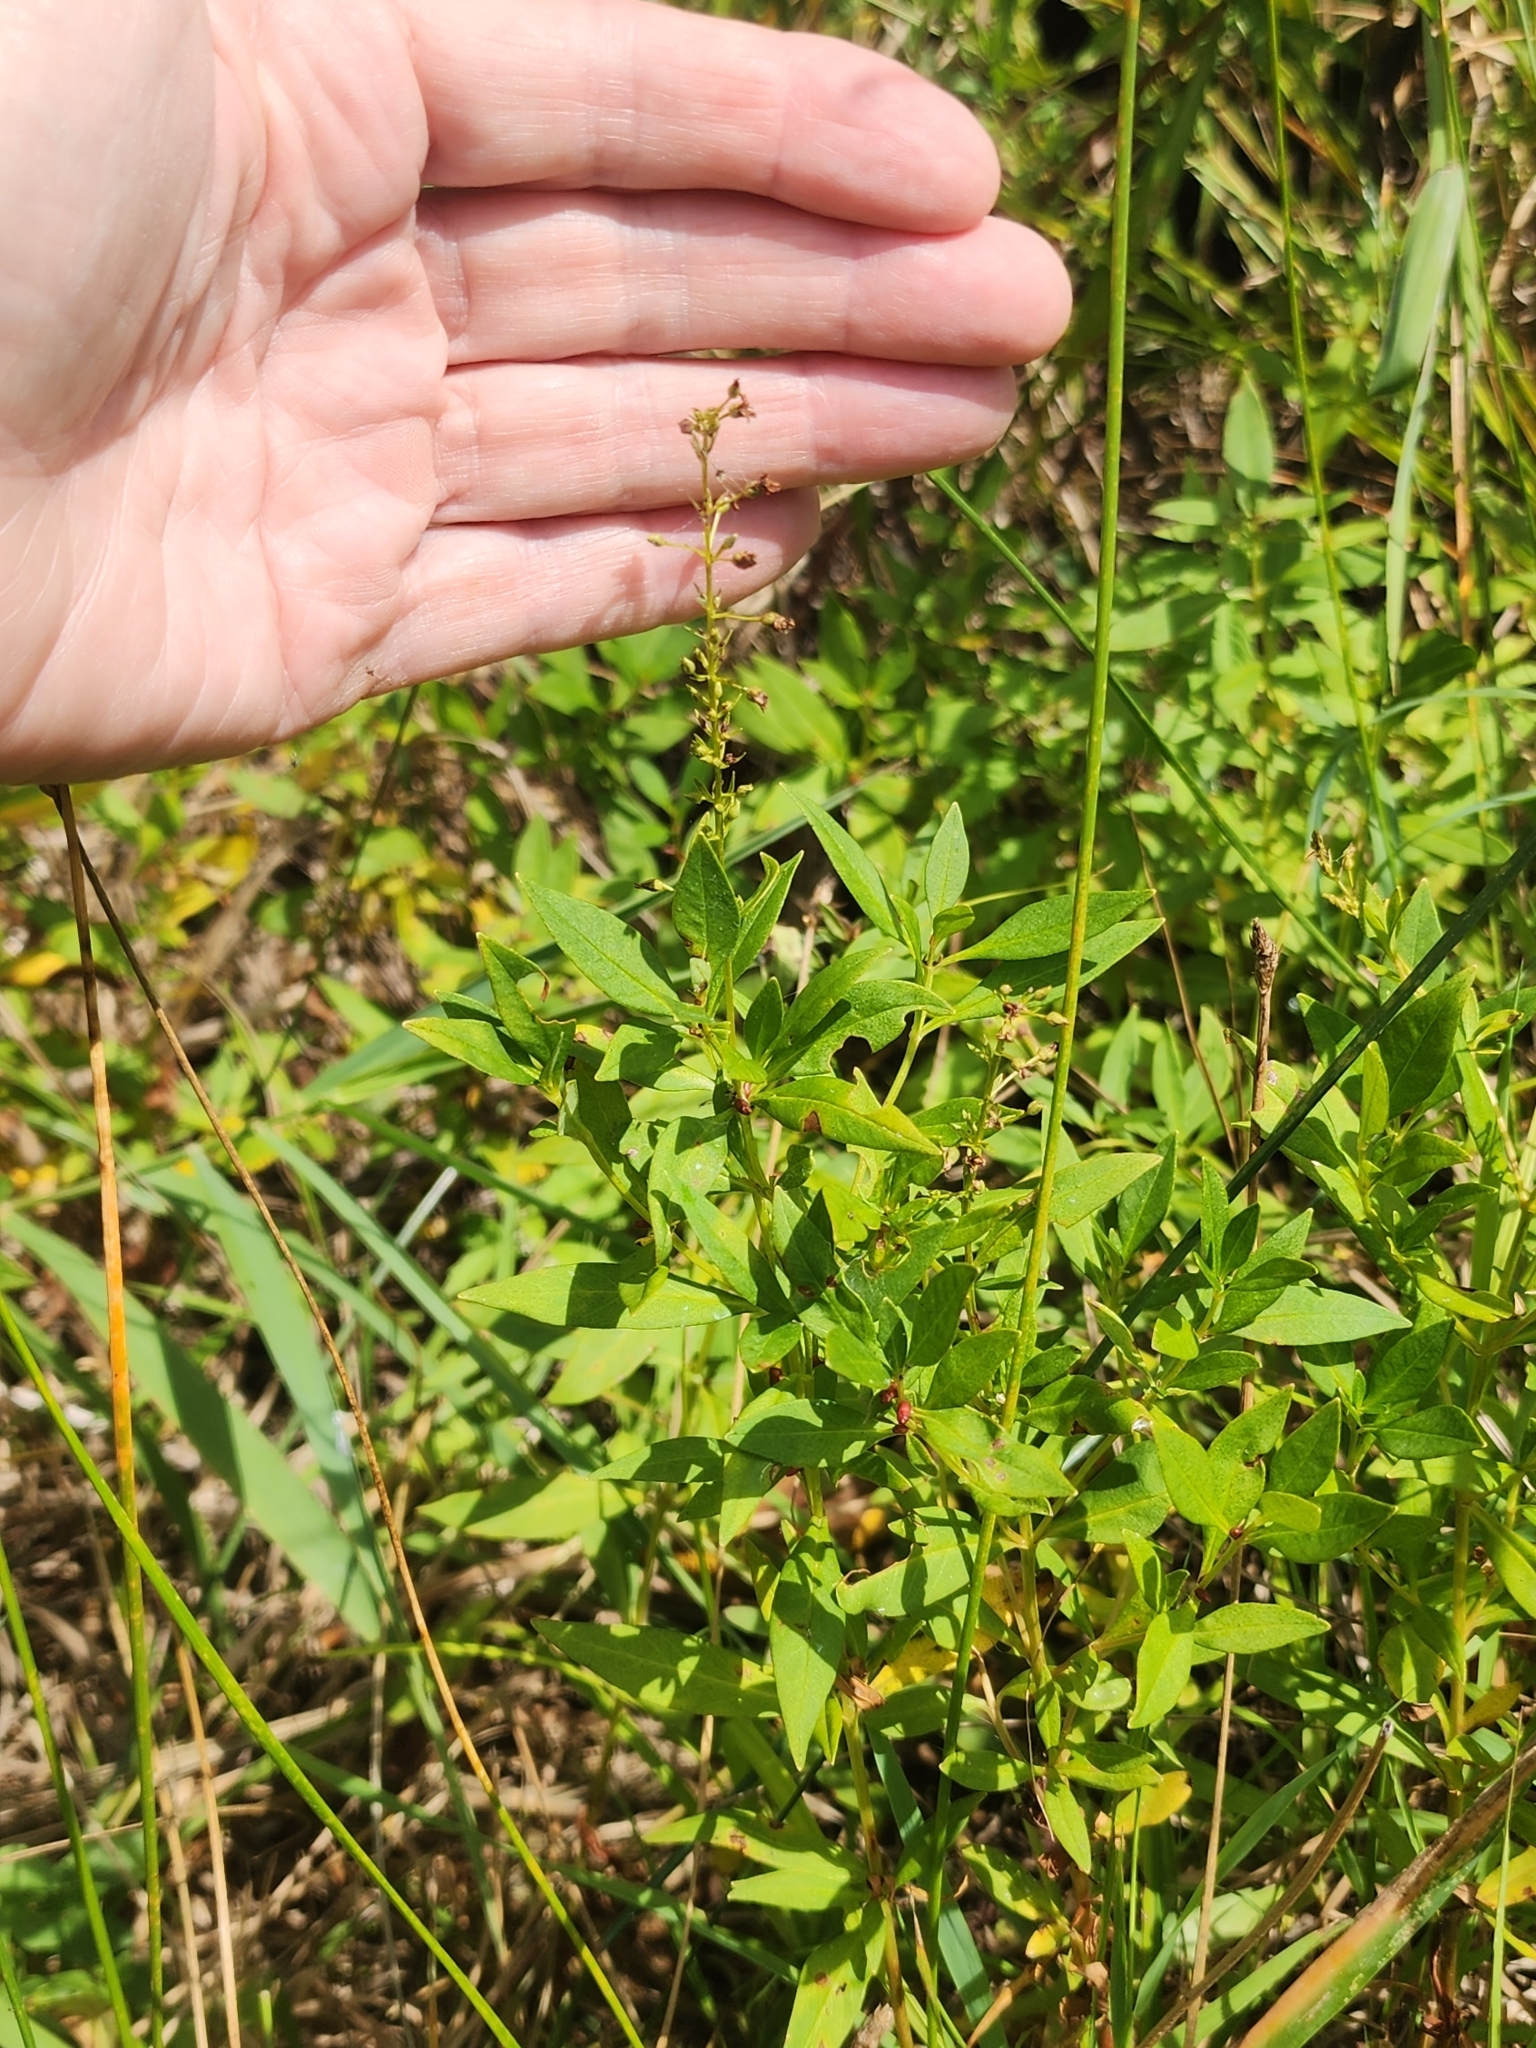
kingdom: Plantae
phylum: Tracheophyta
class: Magnoliopsida
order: Ericales
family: Primulaceae
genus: Lysimachia
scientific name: Lysimachia terrestris
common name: Lake loosestrife
